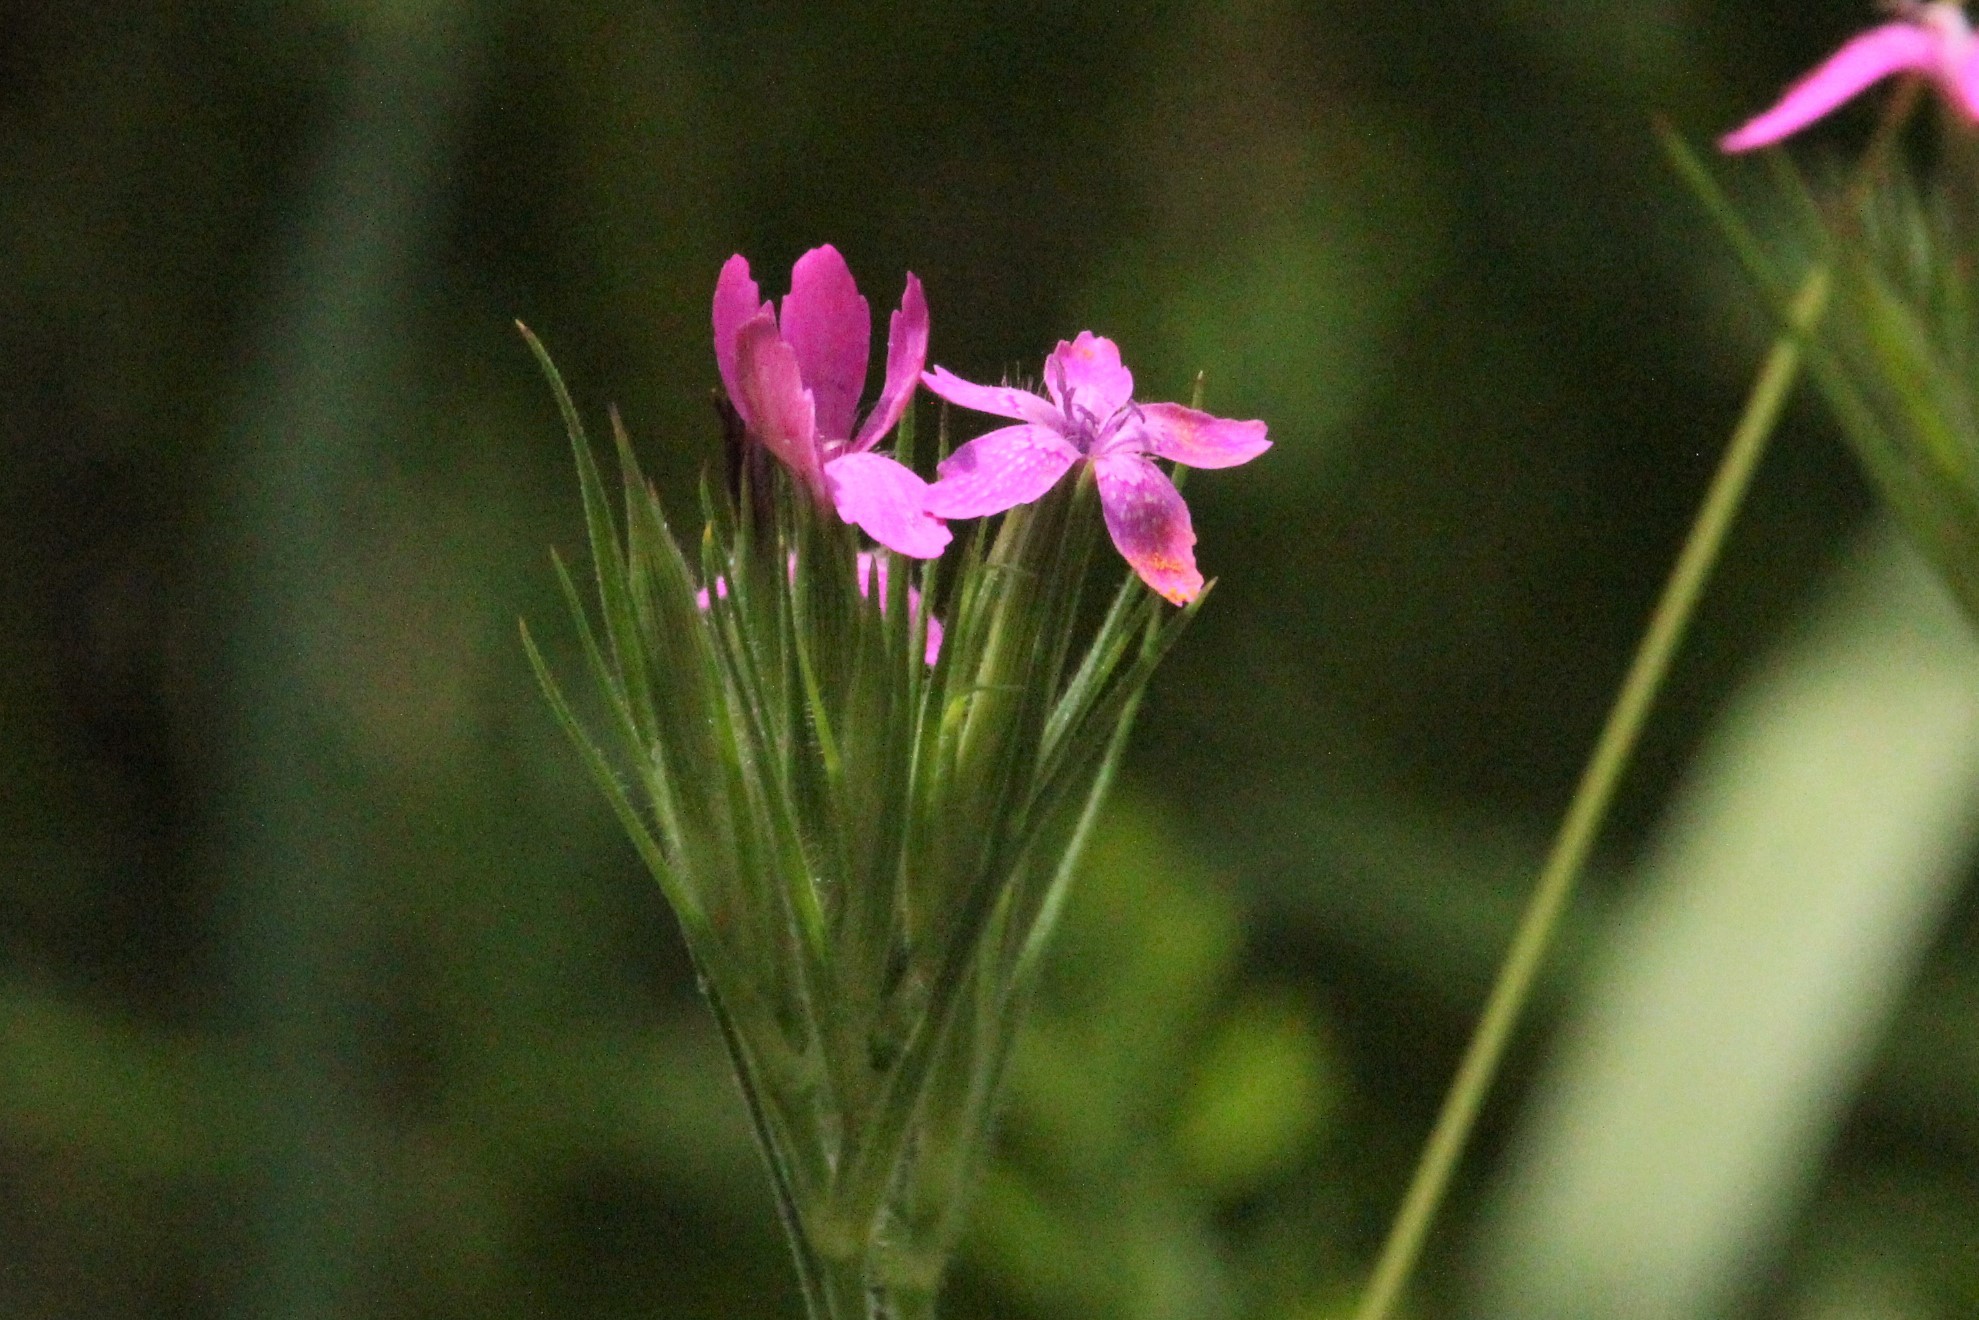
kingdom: Plantae
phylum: Tracheophyta
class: Magnoliopsida
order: Caryophyllales
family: Caryophyllaceae
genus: Dianthus
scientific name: Dianthus armeria
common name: Deptford pink
